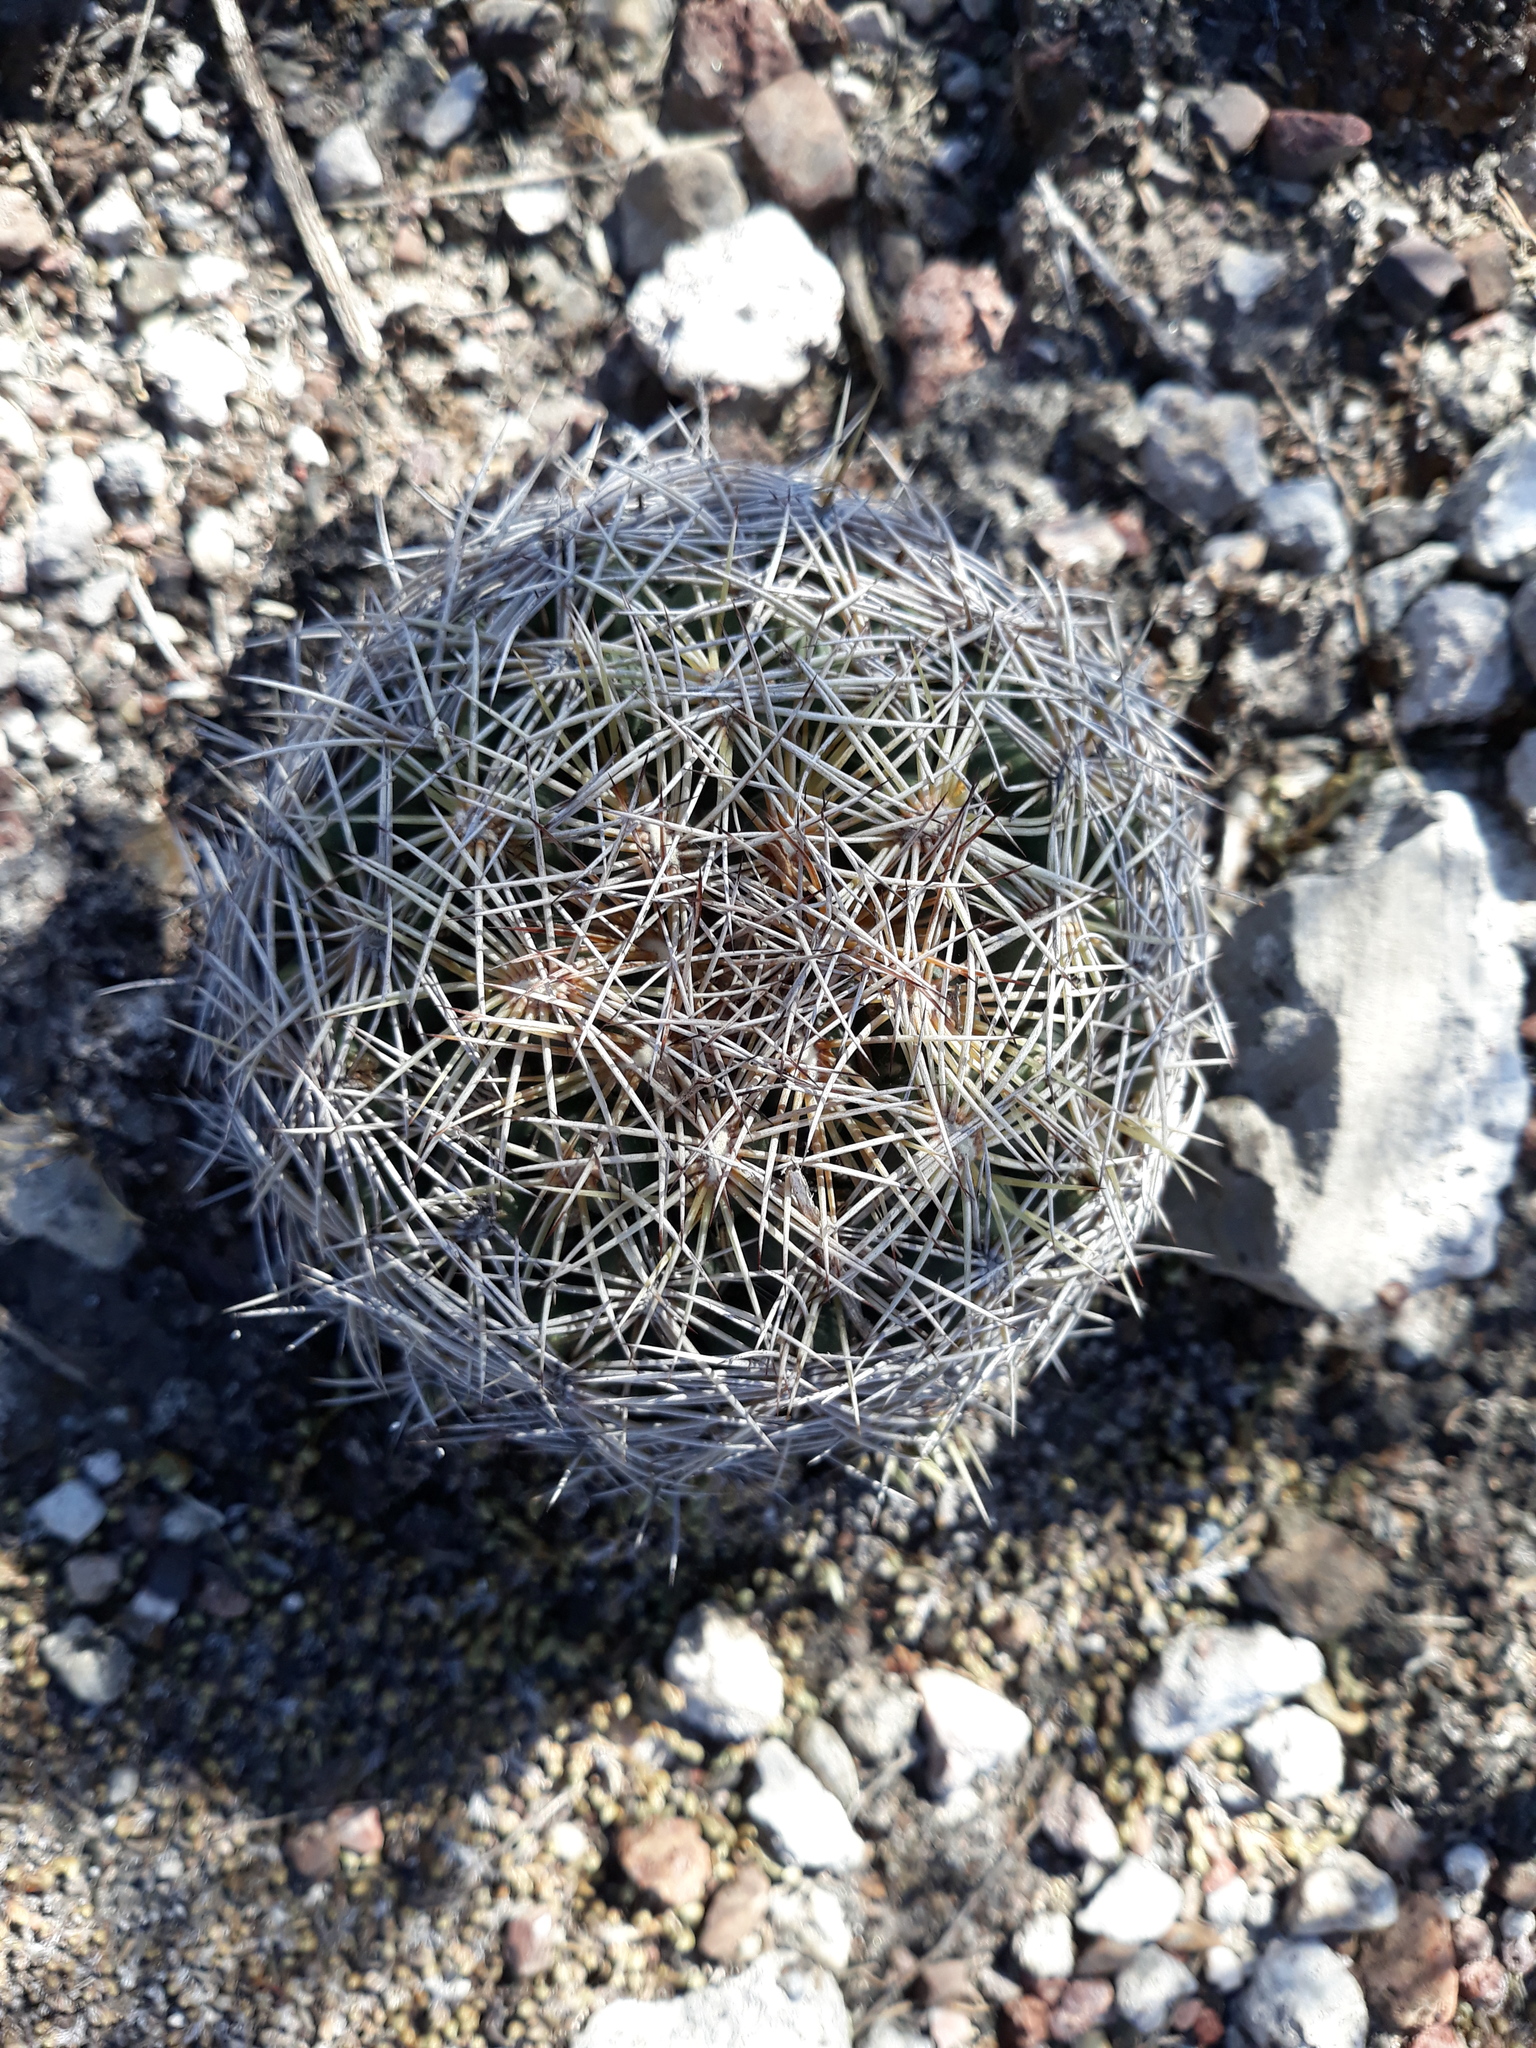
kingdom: Plantae
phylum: Tracheophyta
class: Magnoliopsida
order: Caryophyllales
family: Cactaceae
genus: Coryphantha
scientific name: Coryphantha cornifera
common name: Rhinoceros cactus
